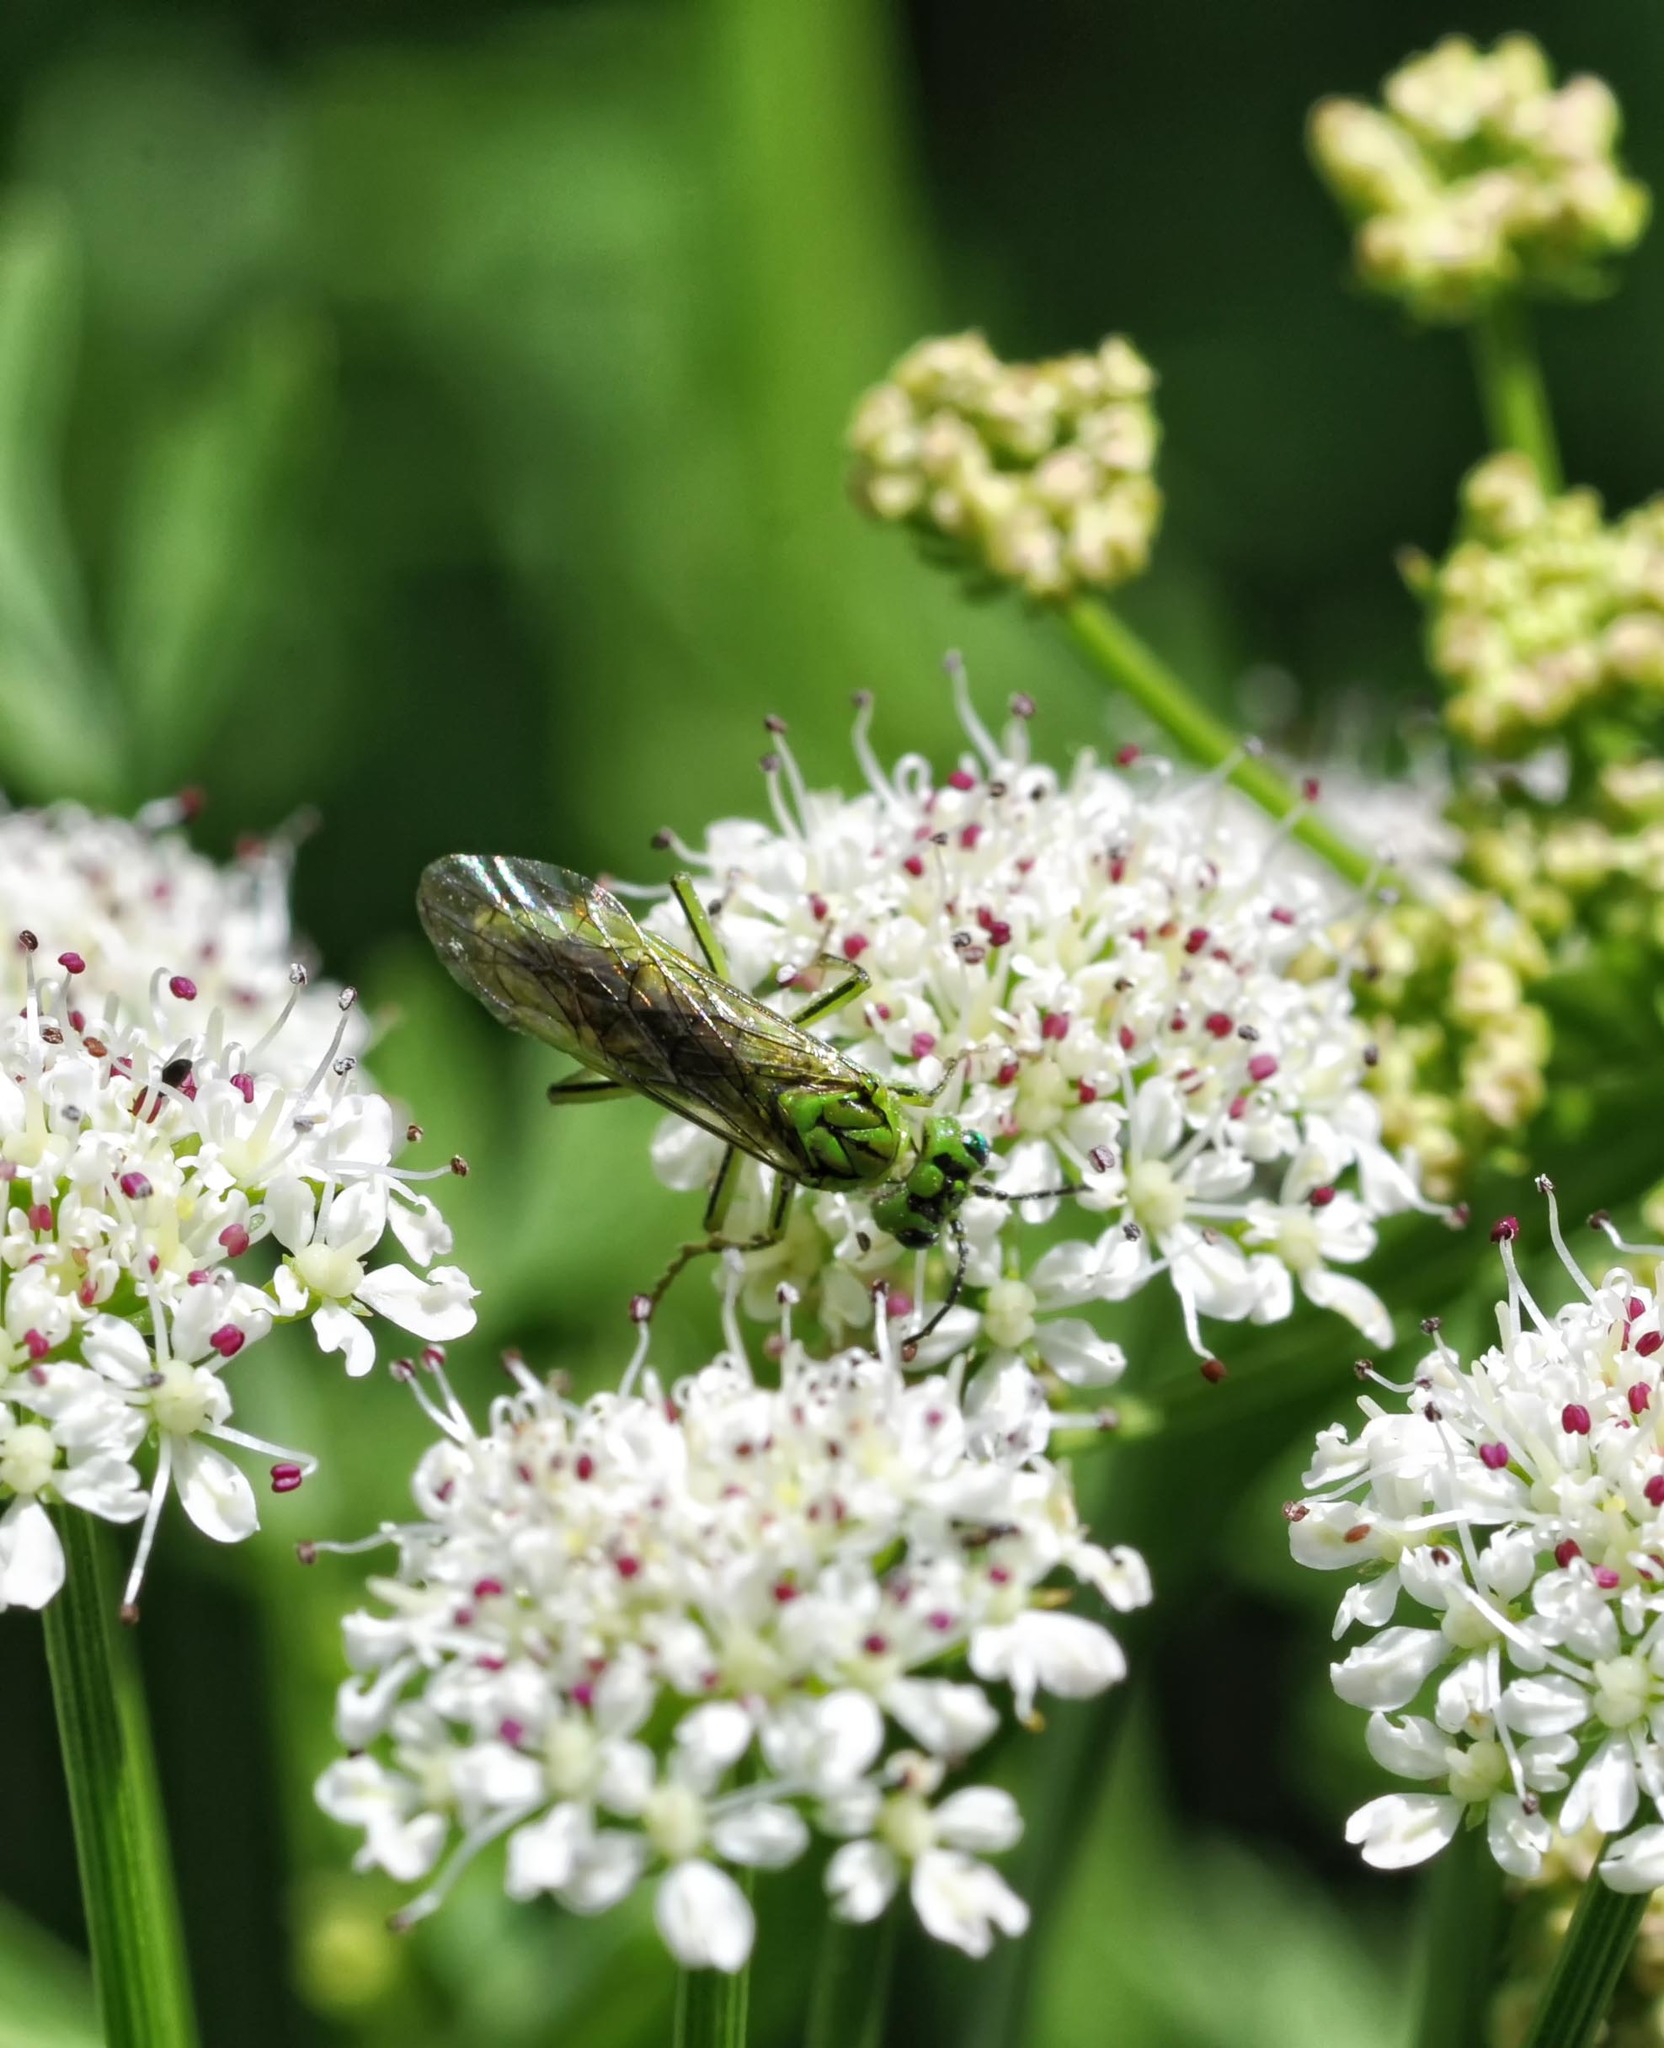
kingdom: Animalia
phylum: Arthropoda
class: Insecta
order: Hymenoptera
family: Tenthredinidae
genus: Tenthredo
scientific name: Tenthredo olivacea
